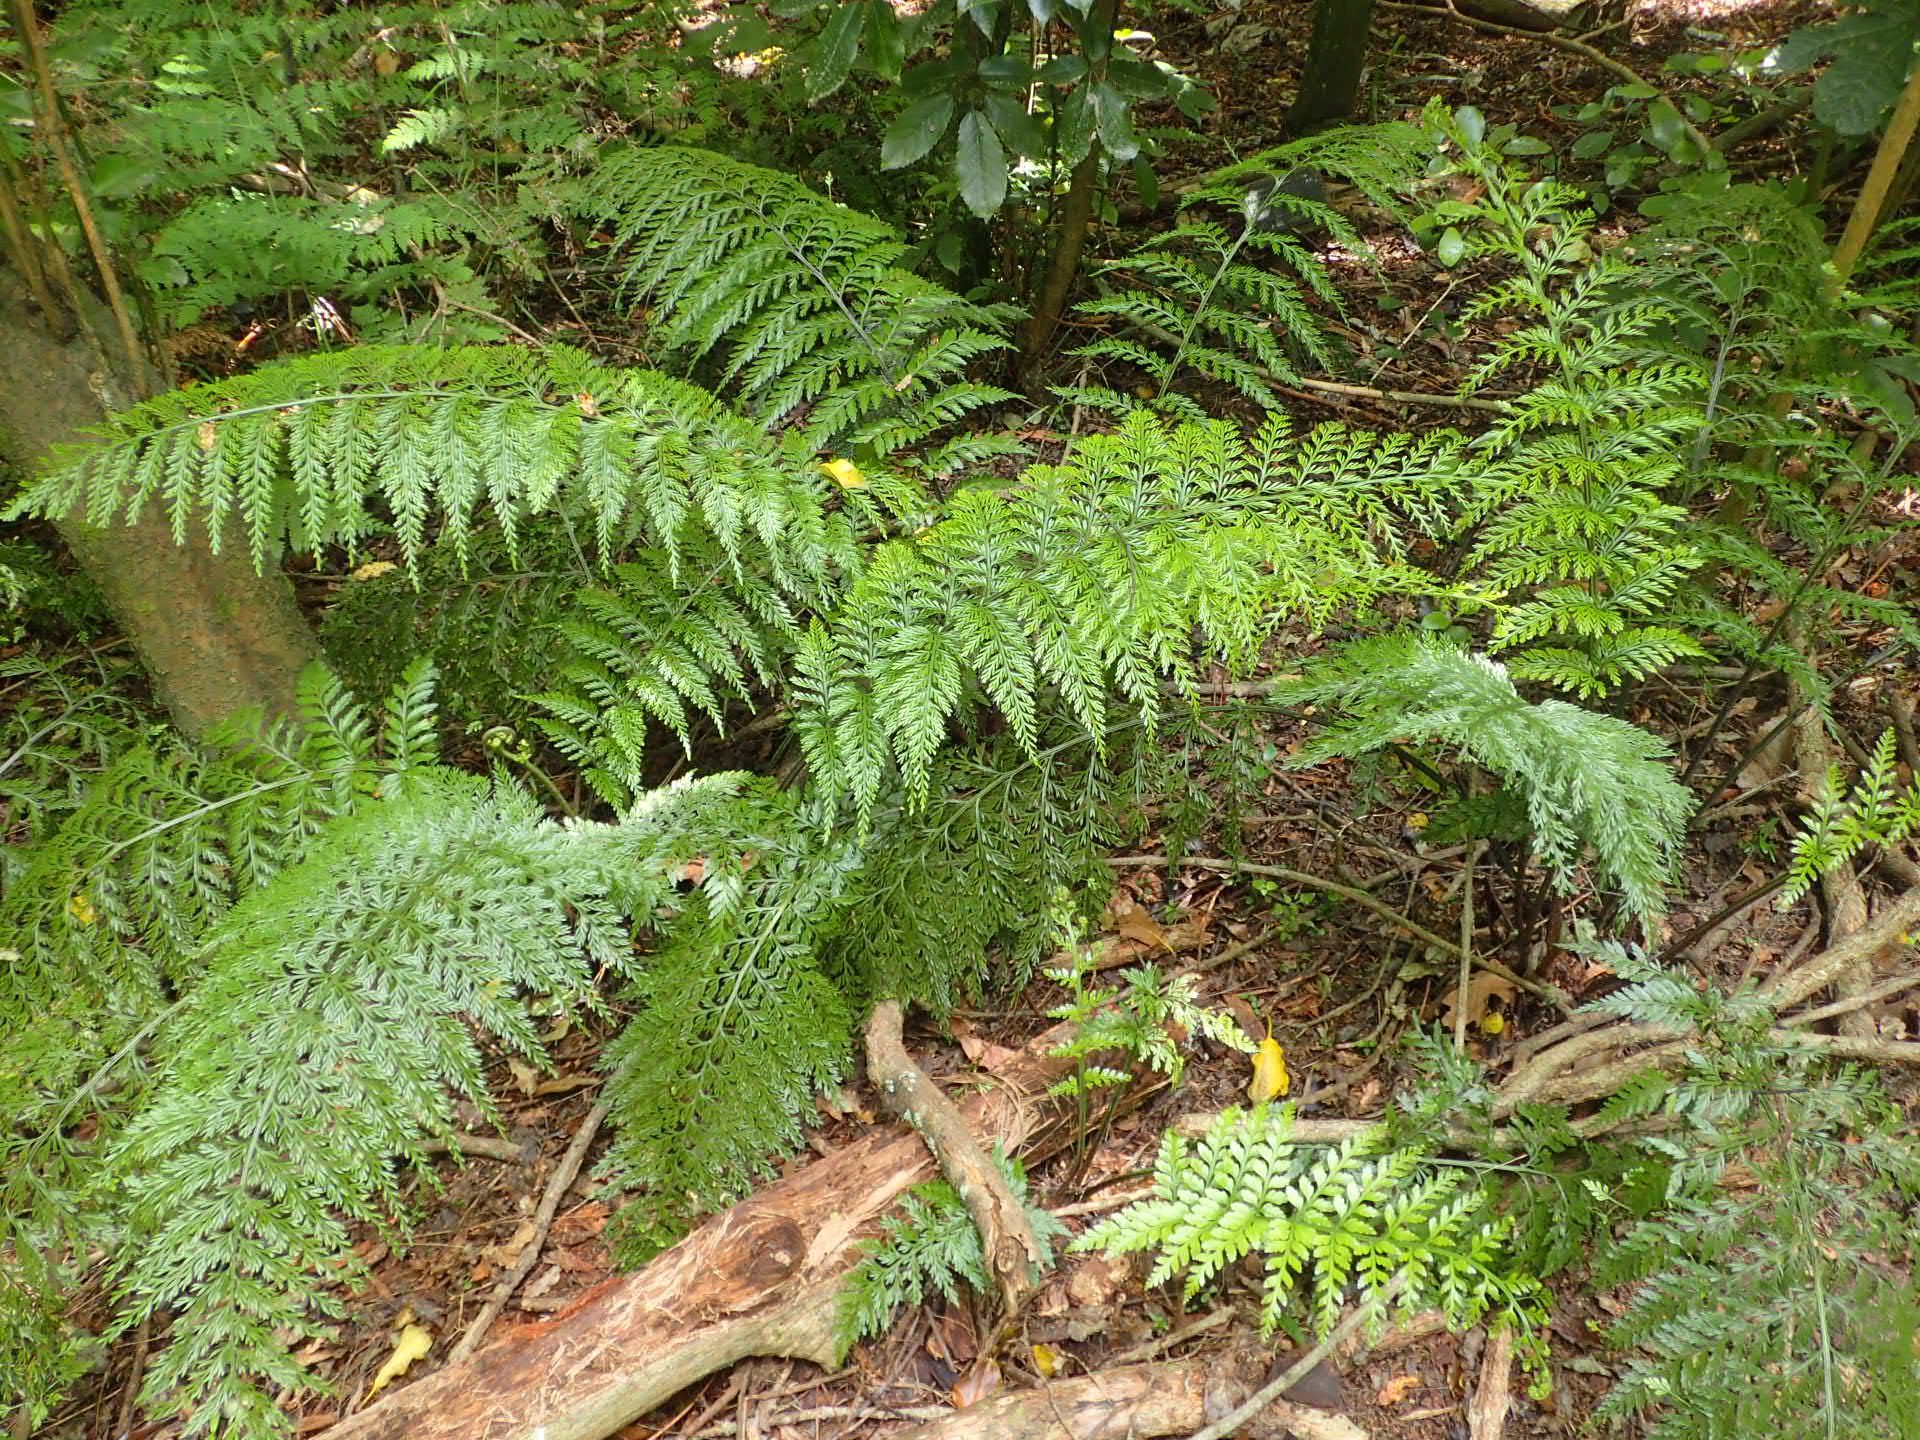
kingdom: Plantae
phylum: Tracheophyta
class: Polypodiopsida
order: Polypodiales
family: Aspleniaceae
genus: Asplenium
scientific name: Asplenium
